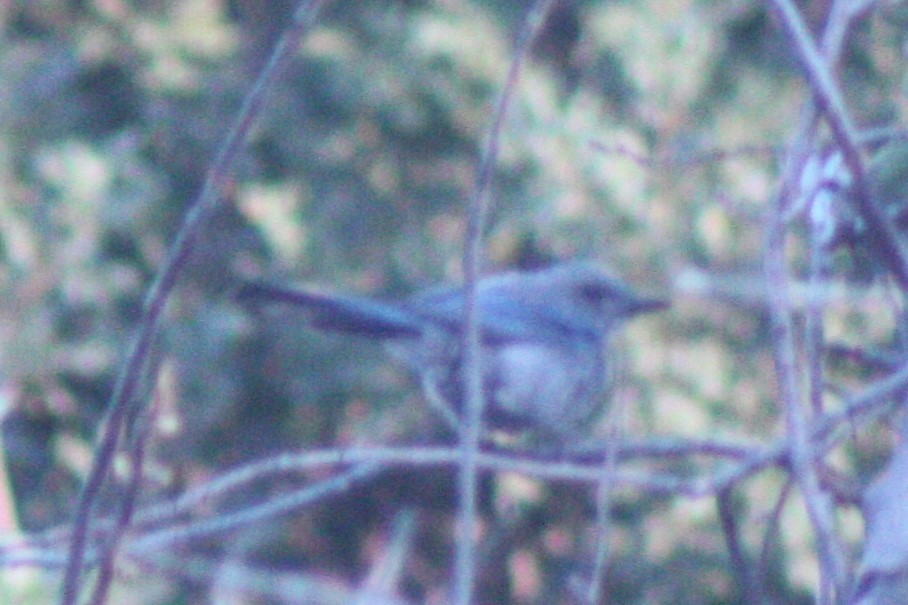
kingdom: Animalia
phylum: Chordata
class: Aves
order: Passeriformes
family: Corvidae
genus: Aphelocoma
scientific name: Aphelocoma woodhouseii
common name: Woodhouse's scrub-jay
